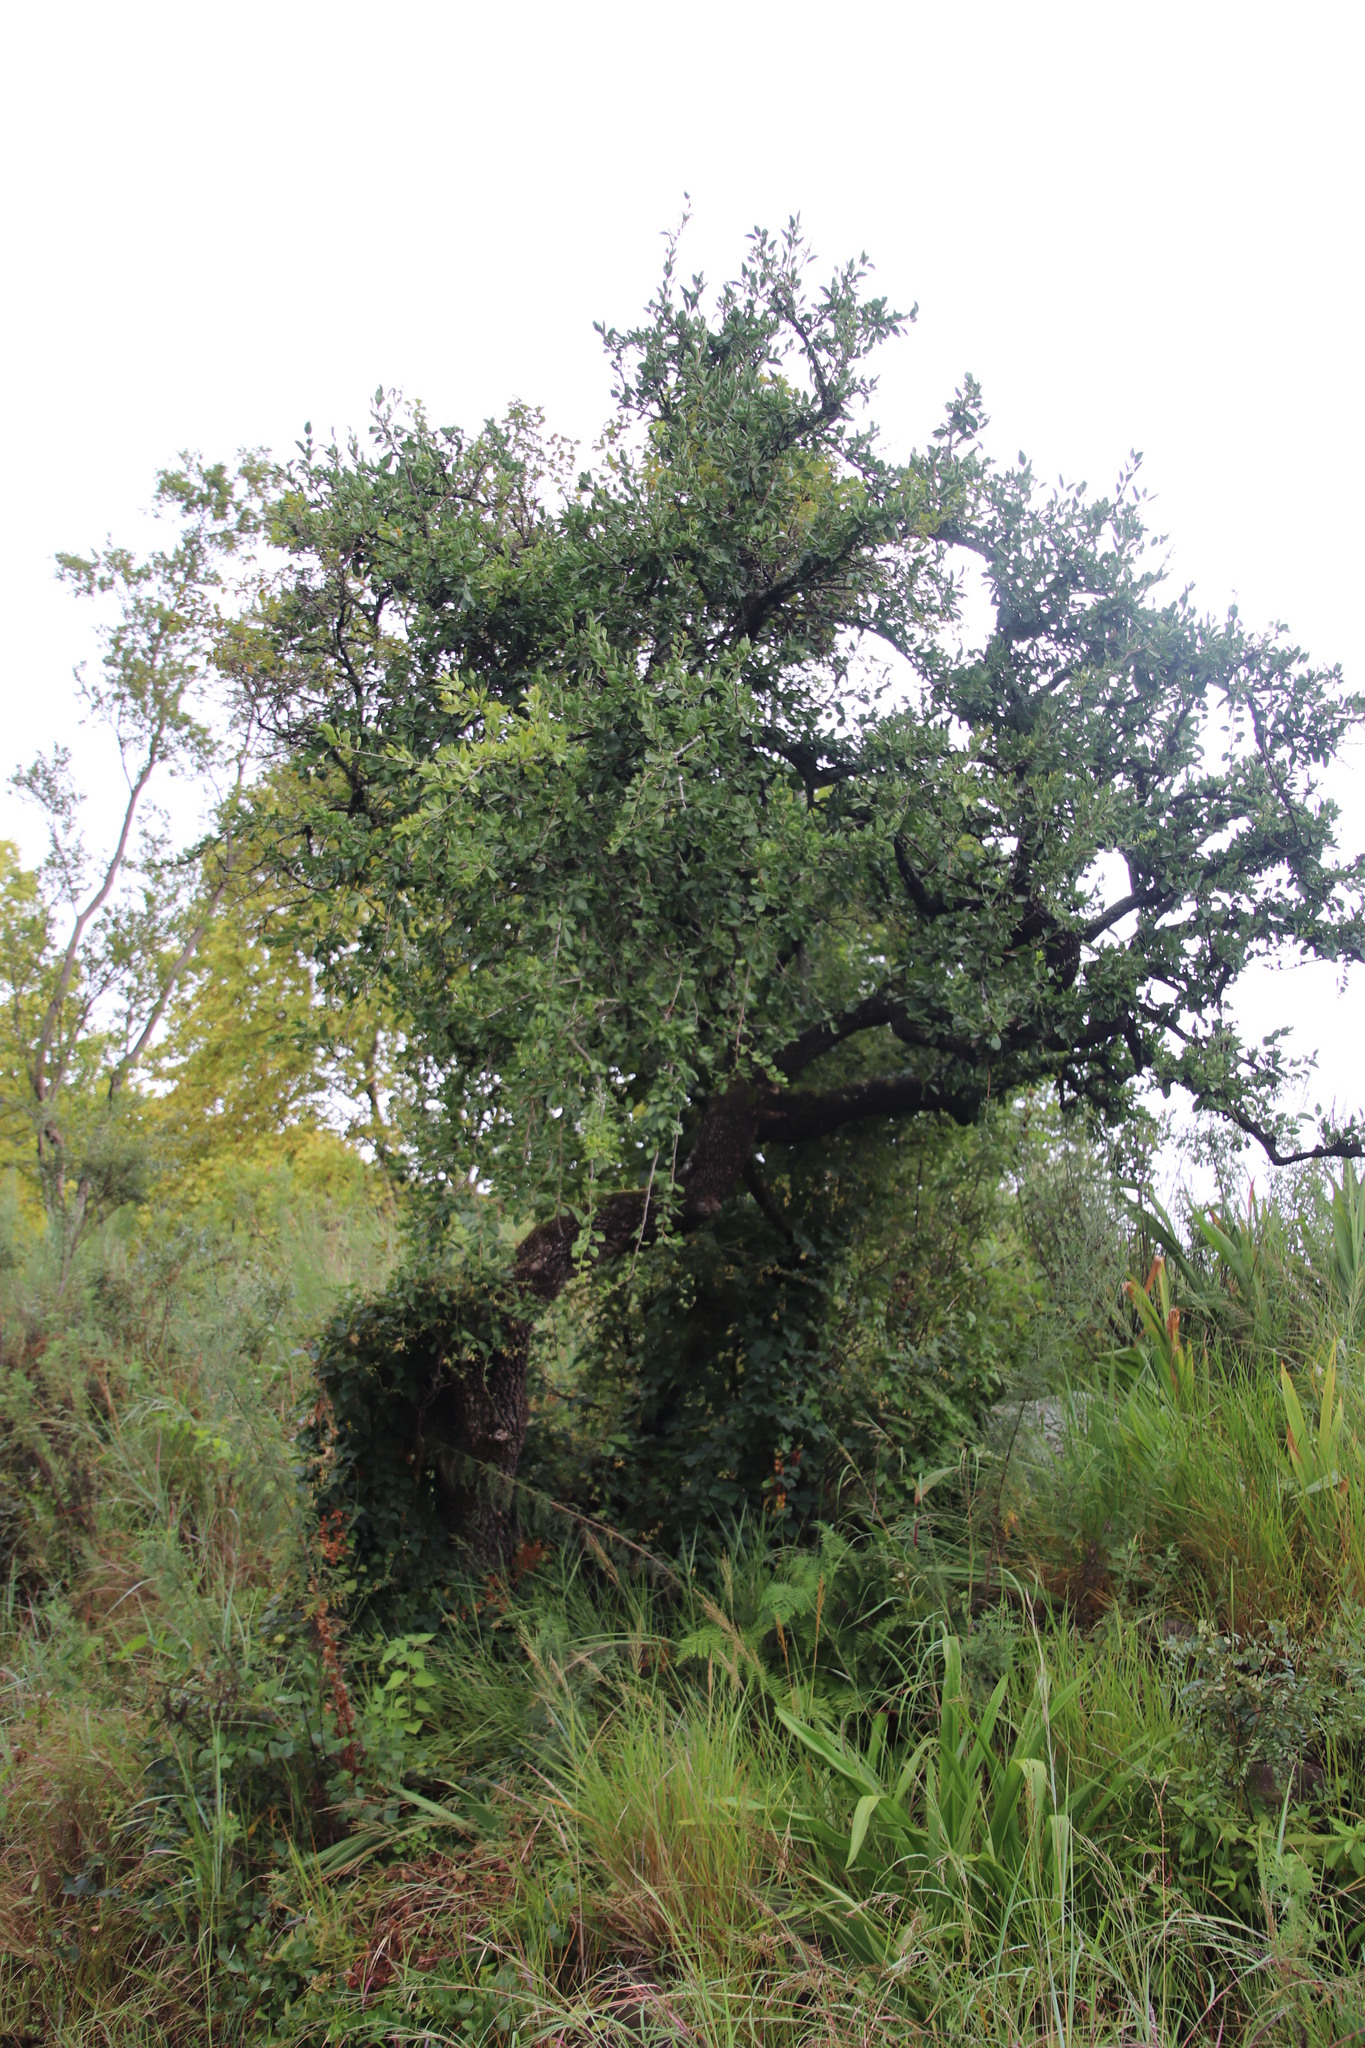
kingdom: Plantae
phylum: Tracheophyta
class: Magnoliopsida
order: Celastrales
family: Celastraceae
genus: Gymnosporia
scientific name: Gymnosporia buxifolia
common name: Common spike-thorn
